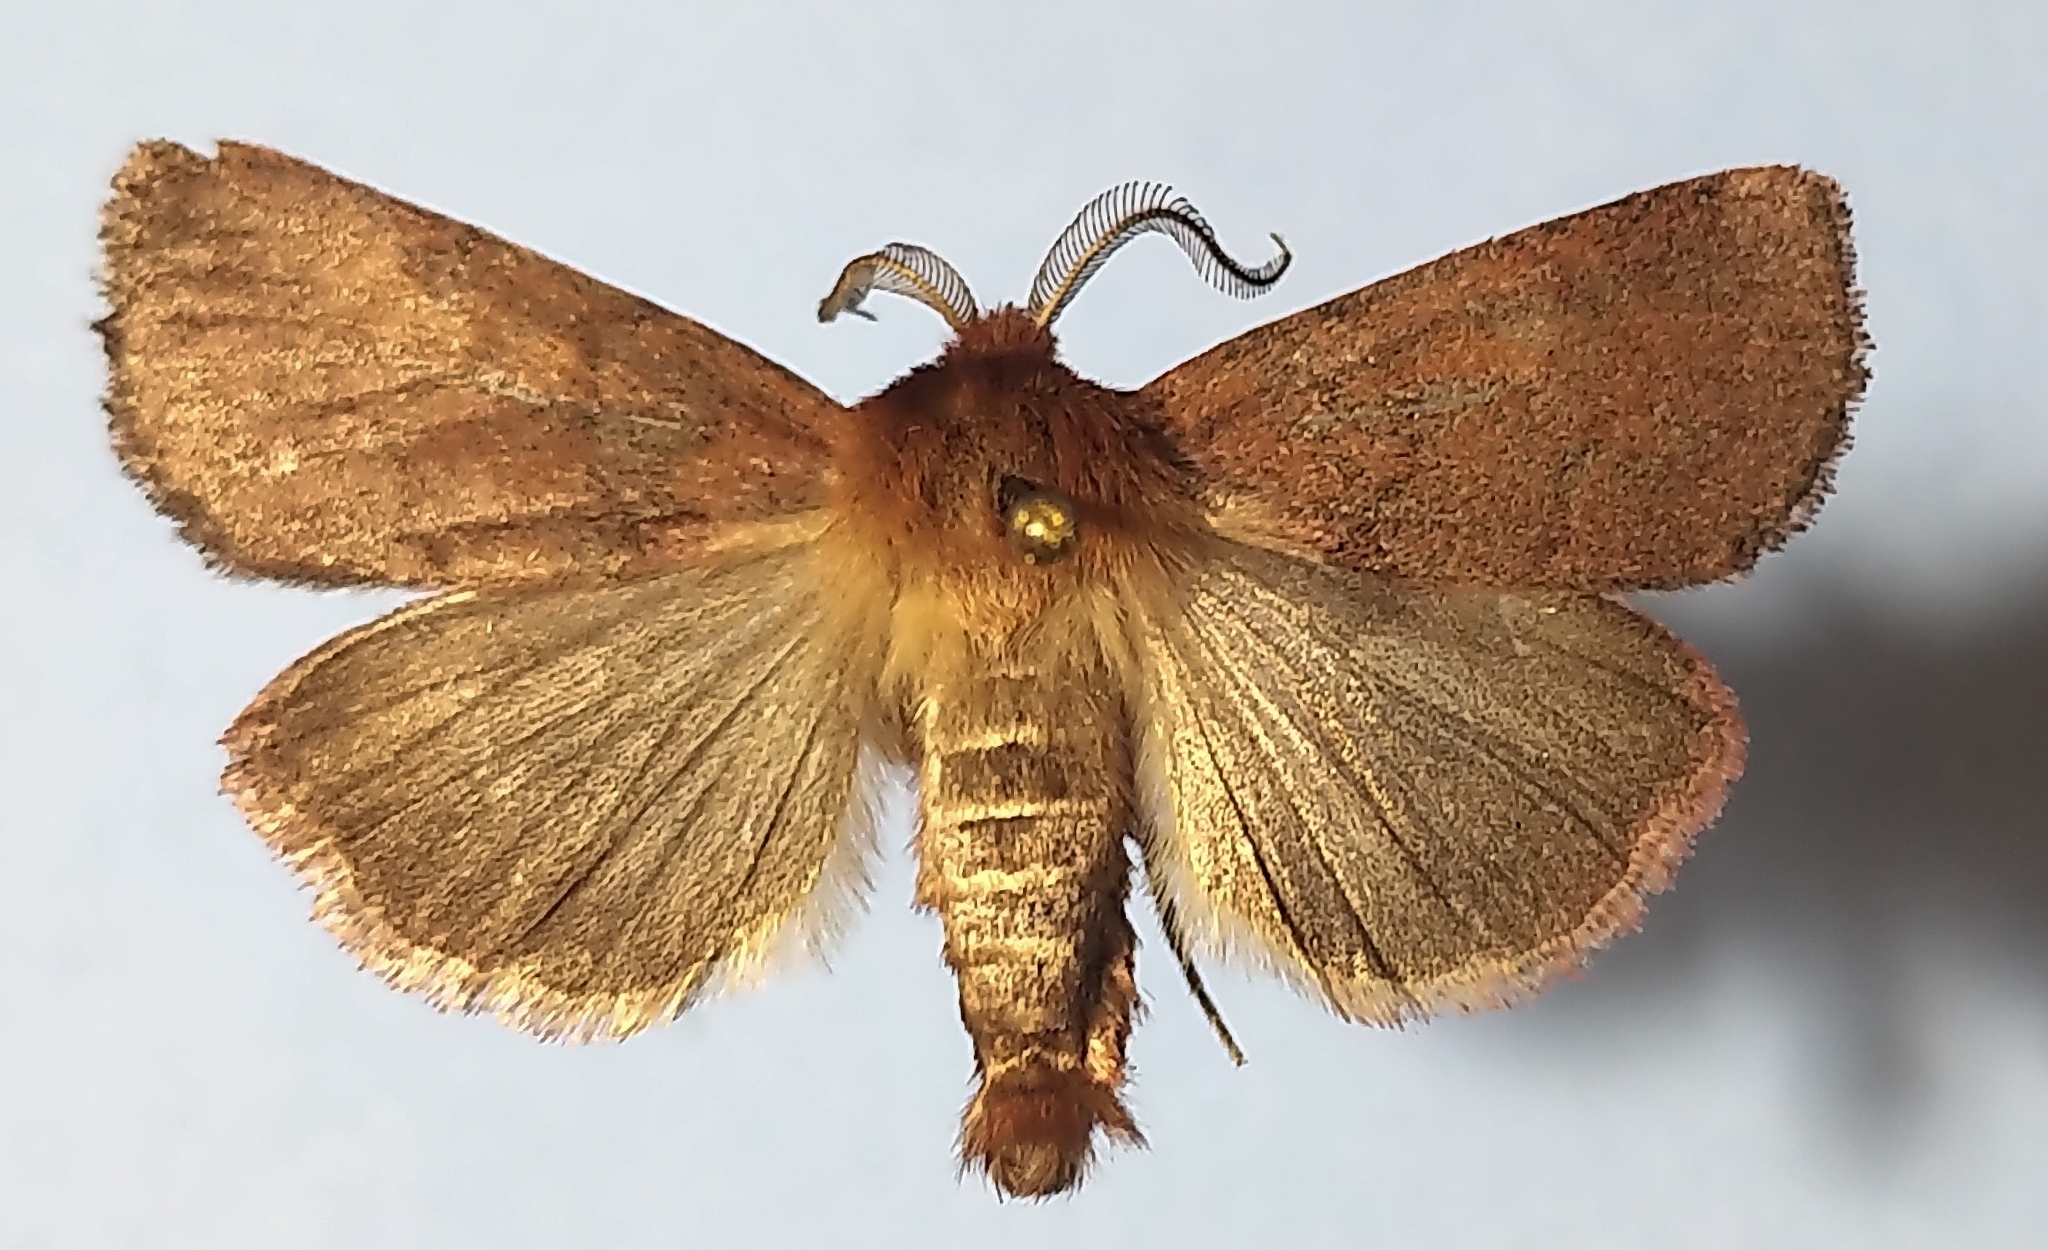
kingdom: Animalia
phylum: Arthropoda
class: Insecta
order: Lepidoptera
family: Noctuidae
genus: Hemipachnobia
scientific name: Hemipachnobia monochromatea
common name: Sundew cutworm moth
